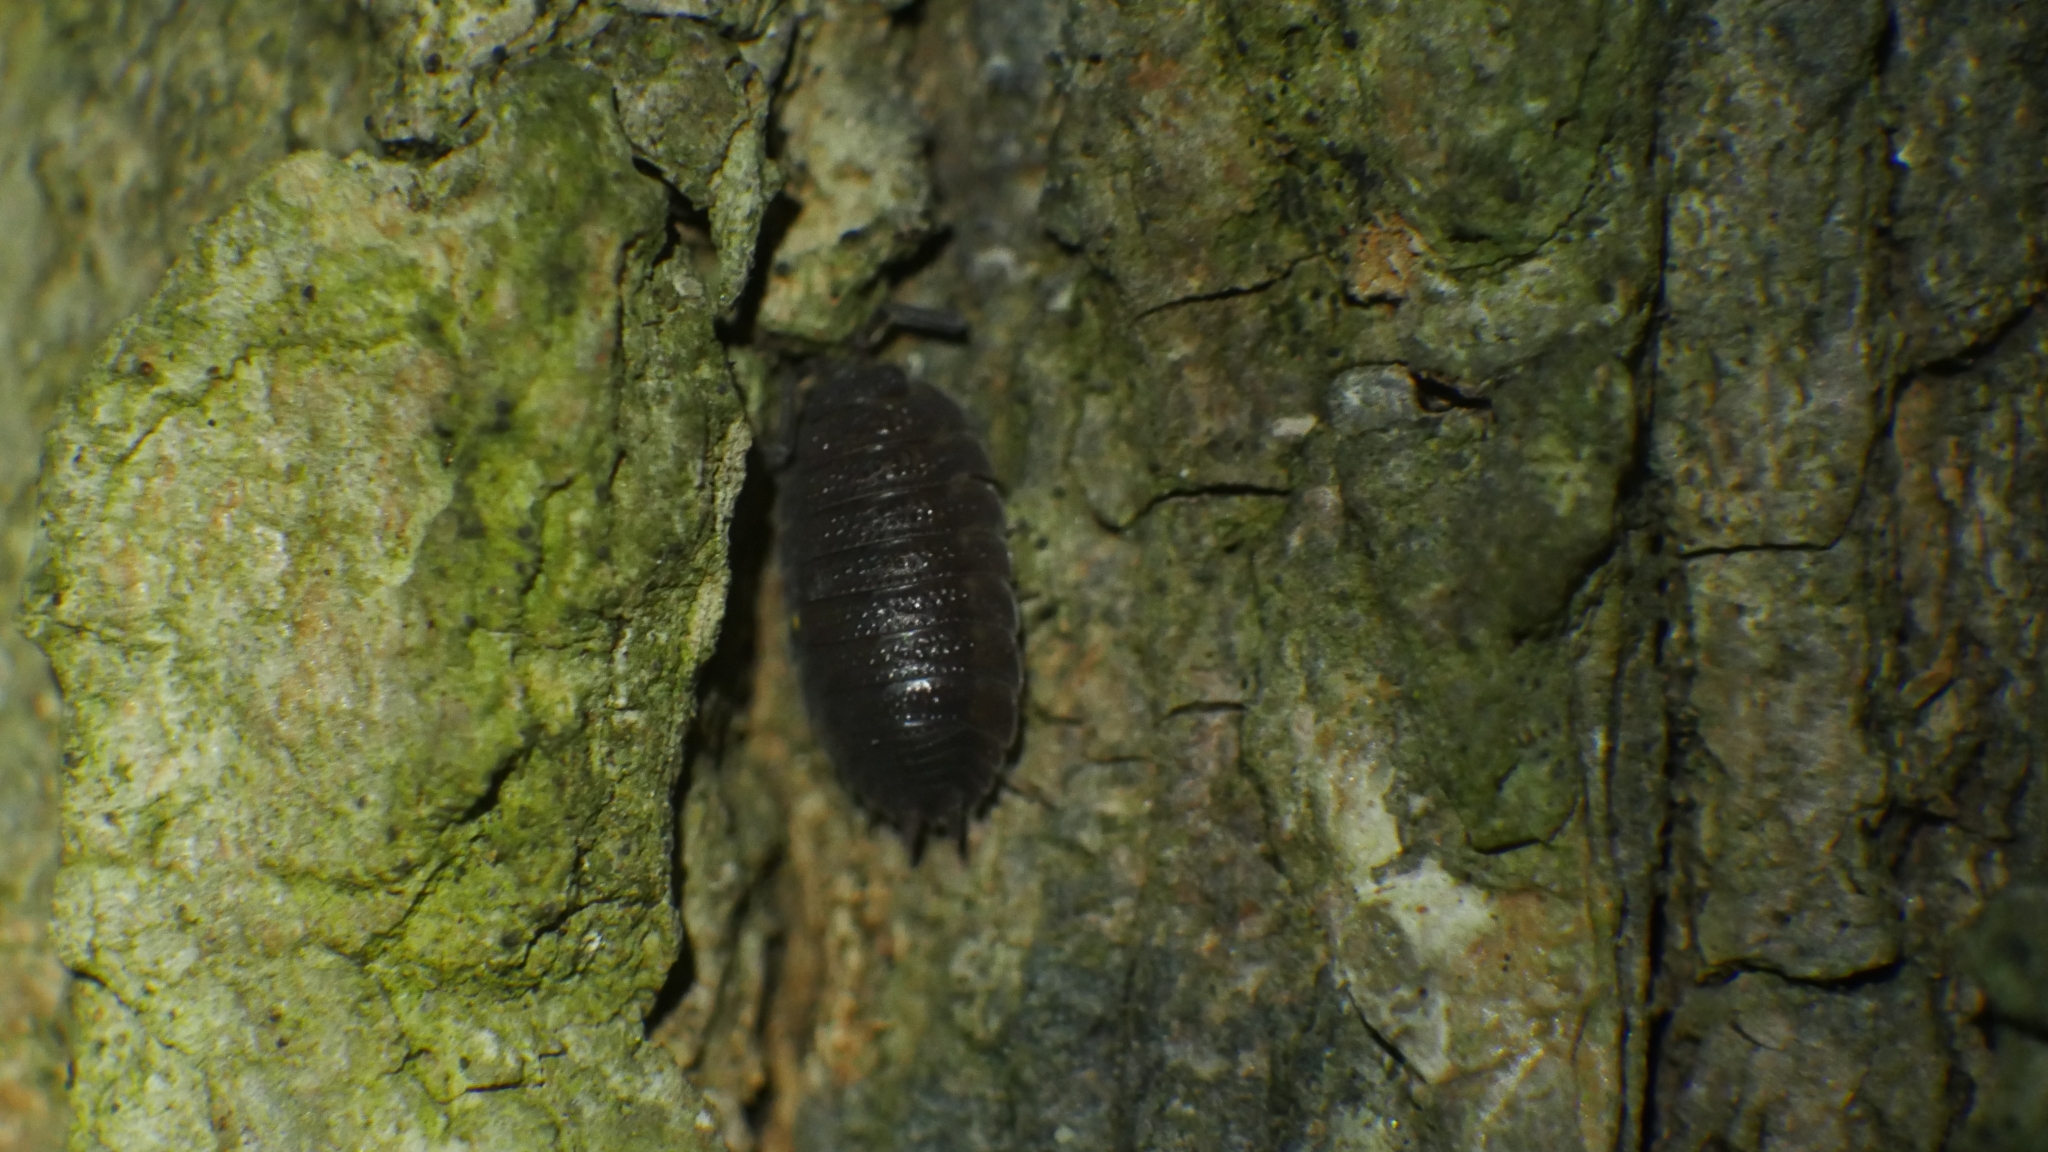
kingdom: Animalia
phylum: Arthropoda
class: Malacostraca
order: Isopoda
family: Porcellionidae
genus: Porcellio
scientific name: Porcellio scaber
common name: Common rough woodlouse
